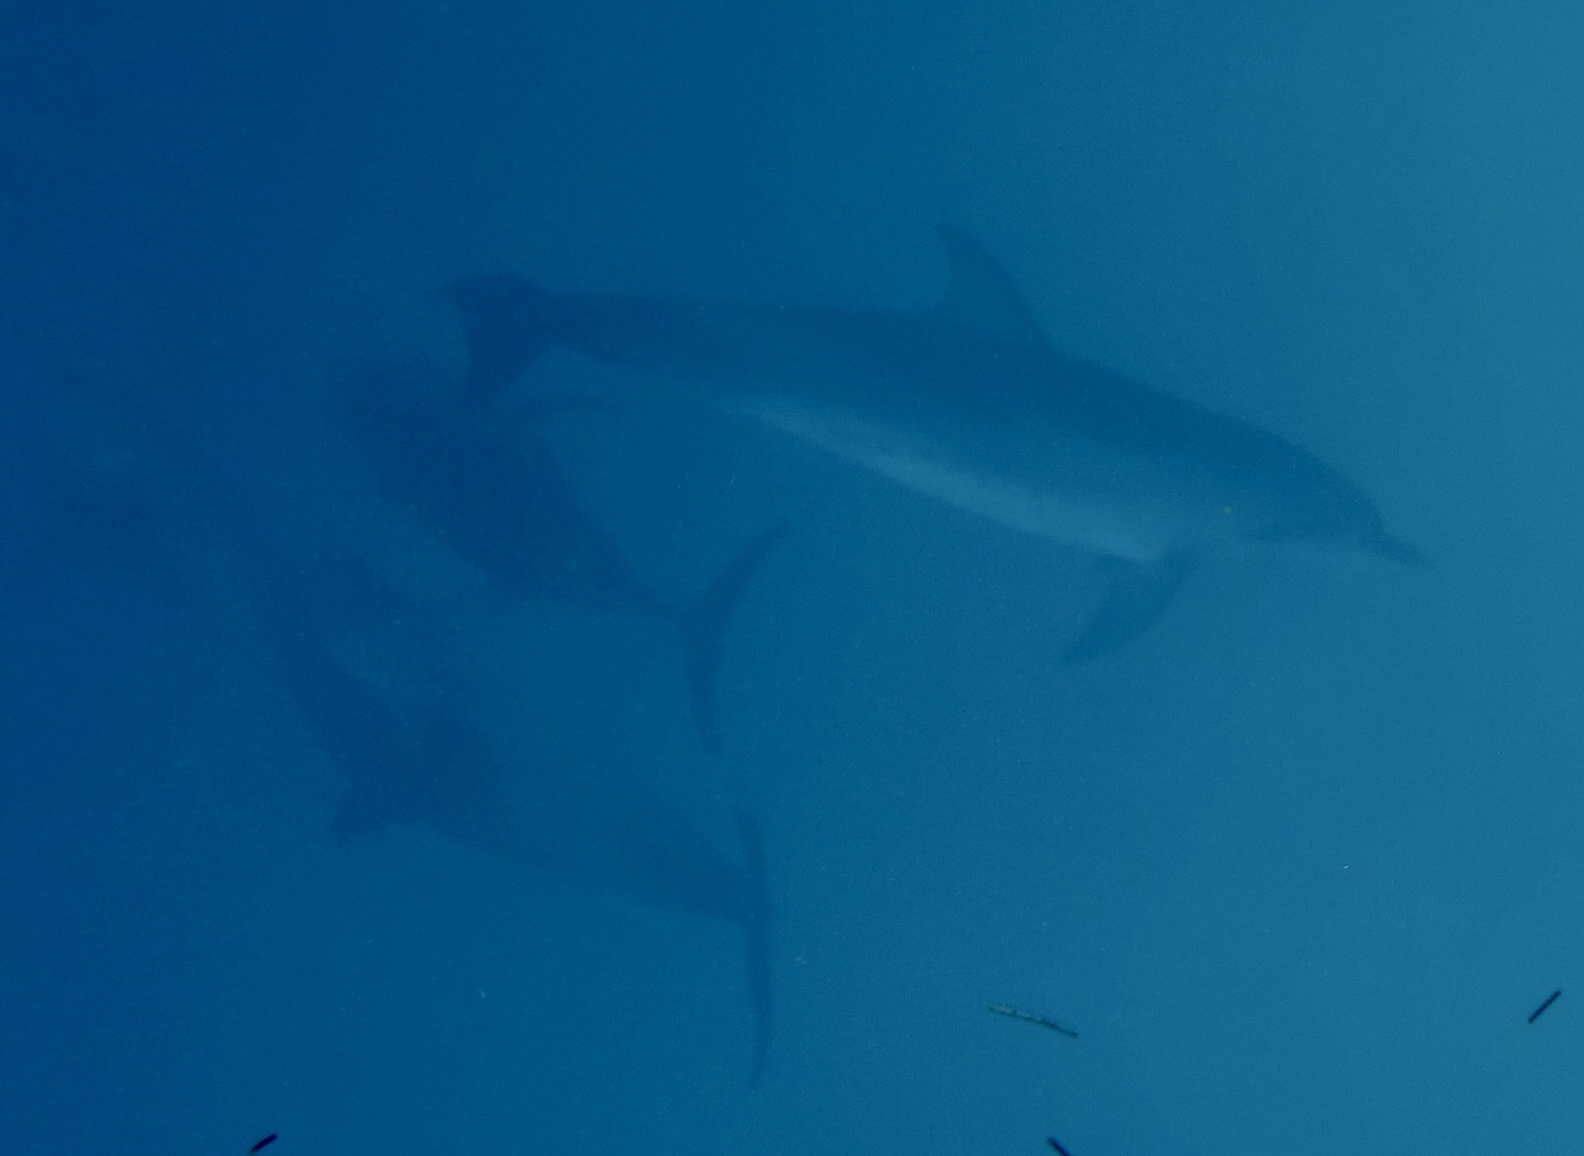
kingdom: Animalia
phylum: Chordata
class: Mammalia
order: Cetacea
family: Delphinidae
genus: Stenella
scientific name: Stenella frontalis
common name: Atlantic spotted dolphin
